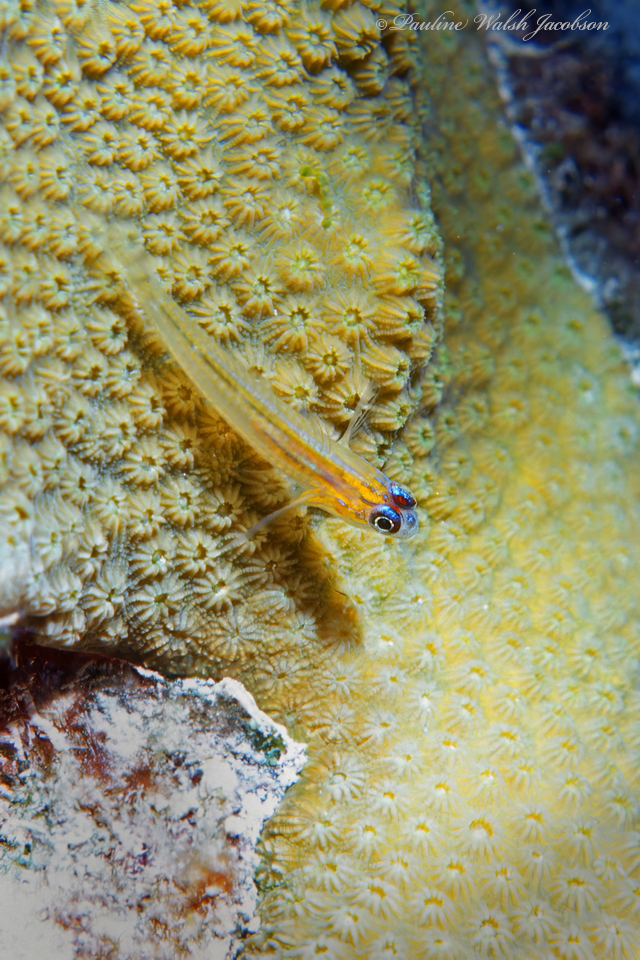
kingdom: Animalia
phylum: Chordata
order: Perciformes
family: Gobiidae
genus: Coryphopterus
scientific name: Coryphopterus lipernes
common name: Peppermint goby
